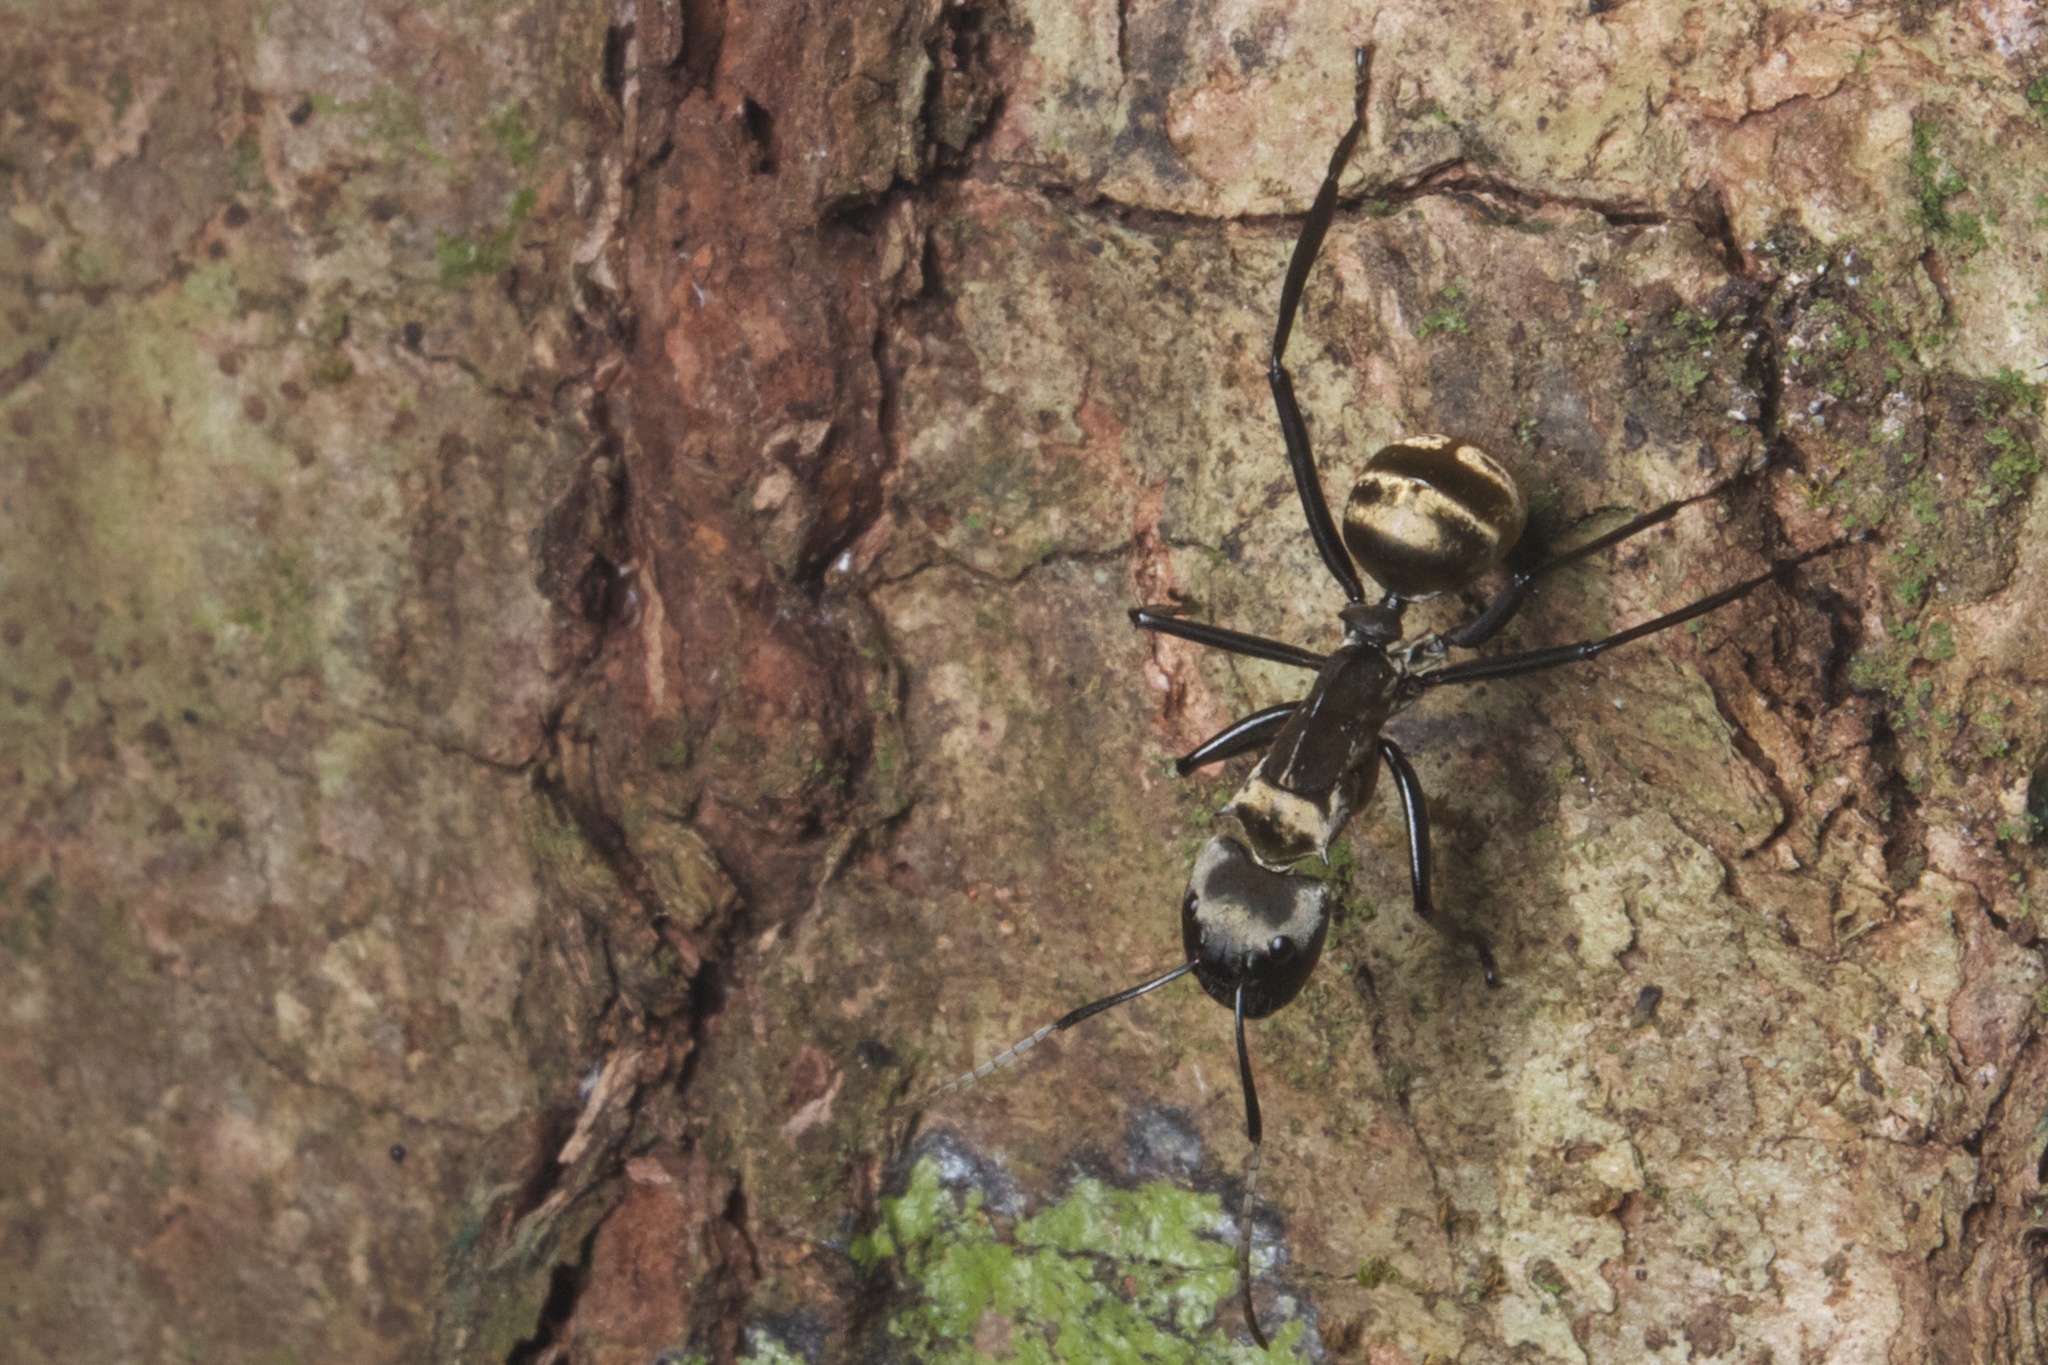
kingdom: Animalia
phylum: Arthropoda
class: Insecta
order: Hymenoptera
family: Formicidae
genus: Camponotus
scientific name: Camponotus sericeiventris
